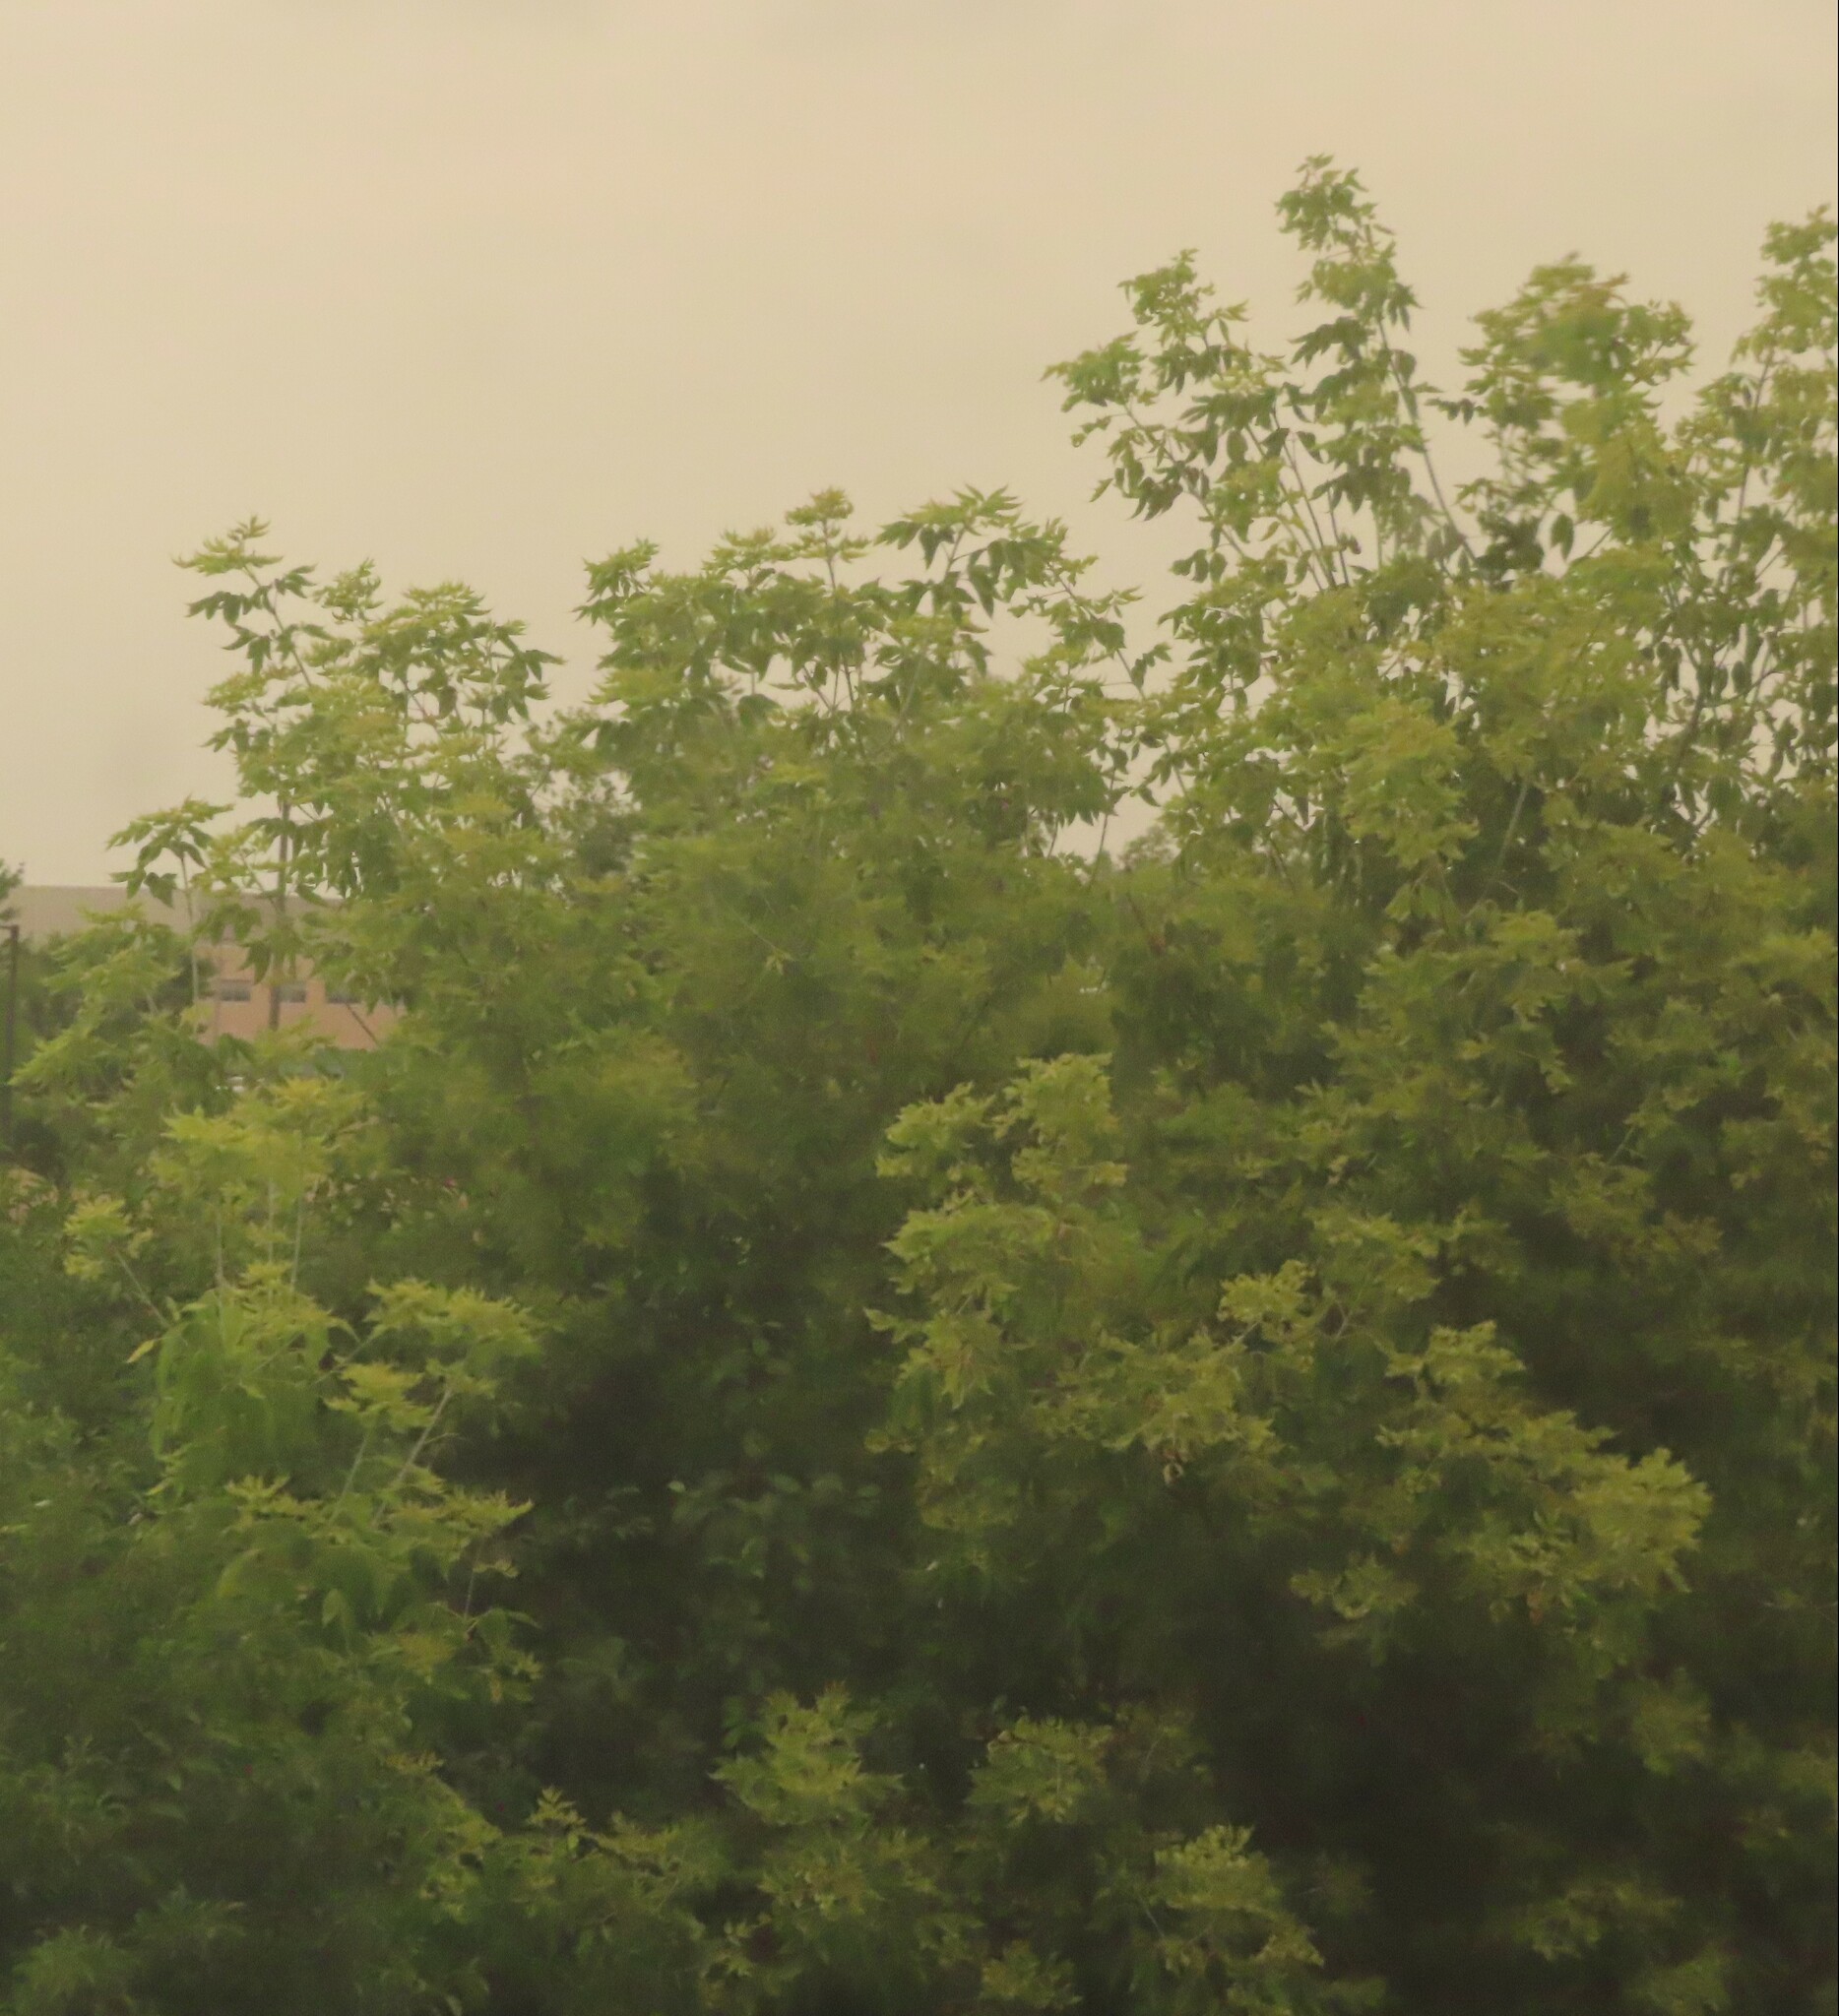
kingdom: Plantae
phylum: Tracheophyta
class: Magnoliopsida
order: Sapindales
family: Sapindaceae
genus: Acer
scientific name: Acer negundo
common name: Ashleaf maple
